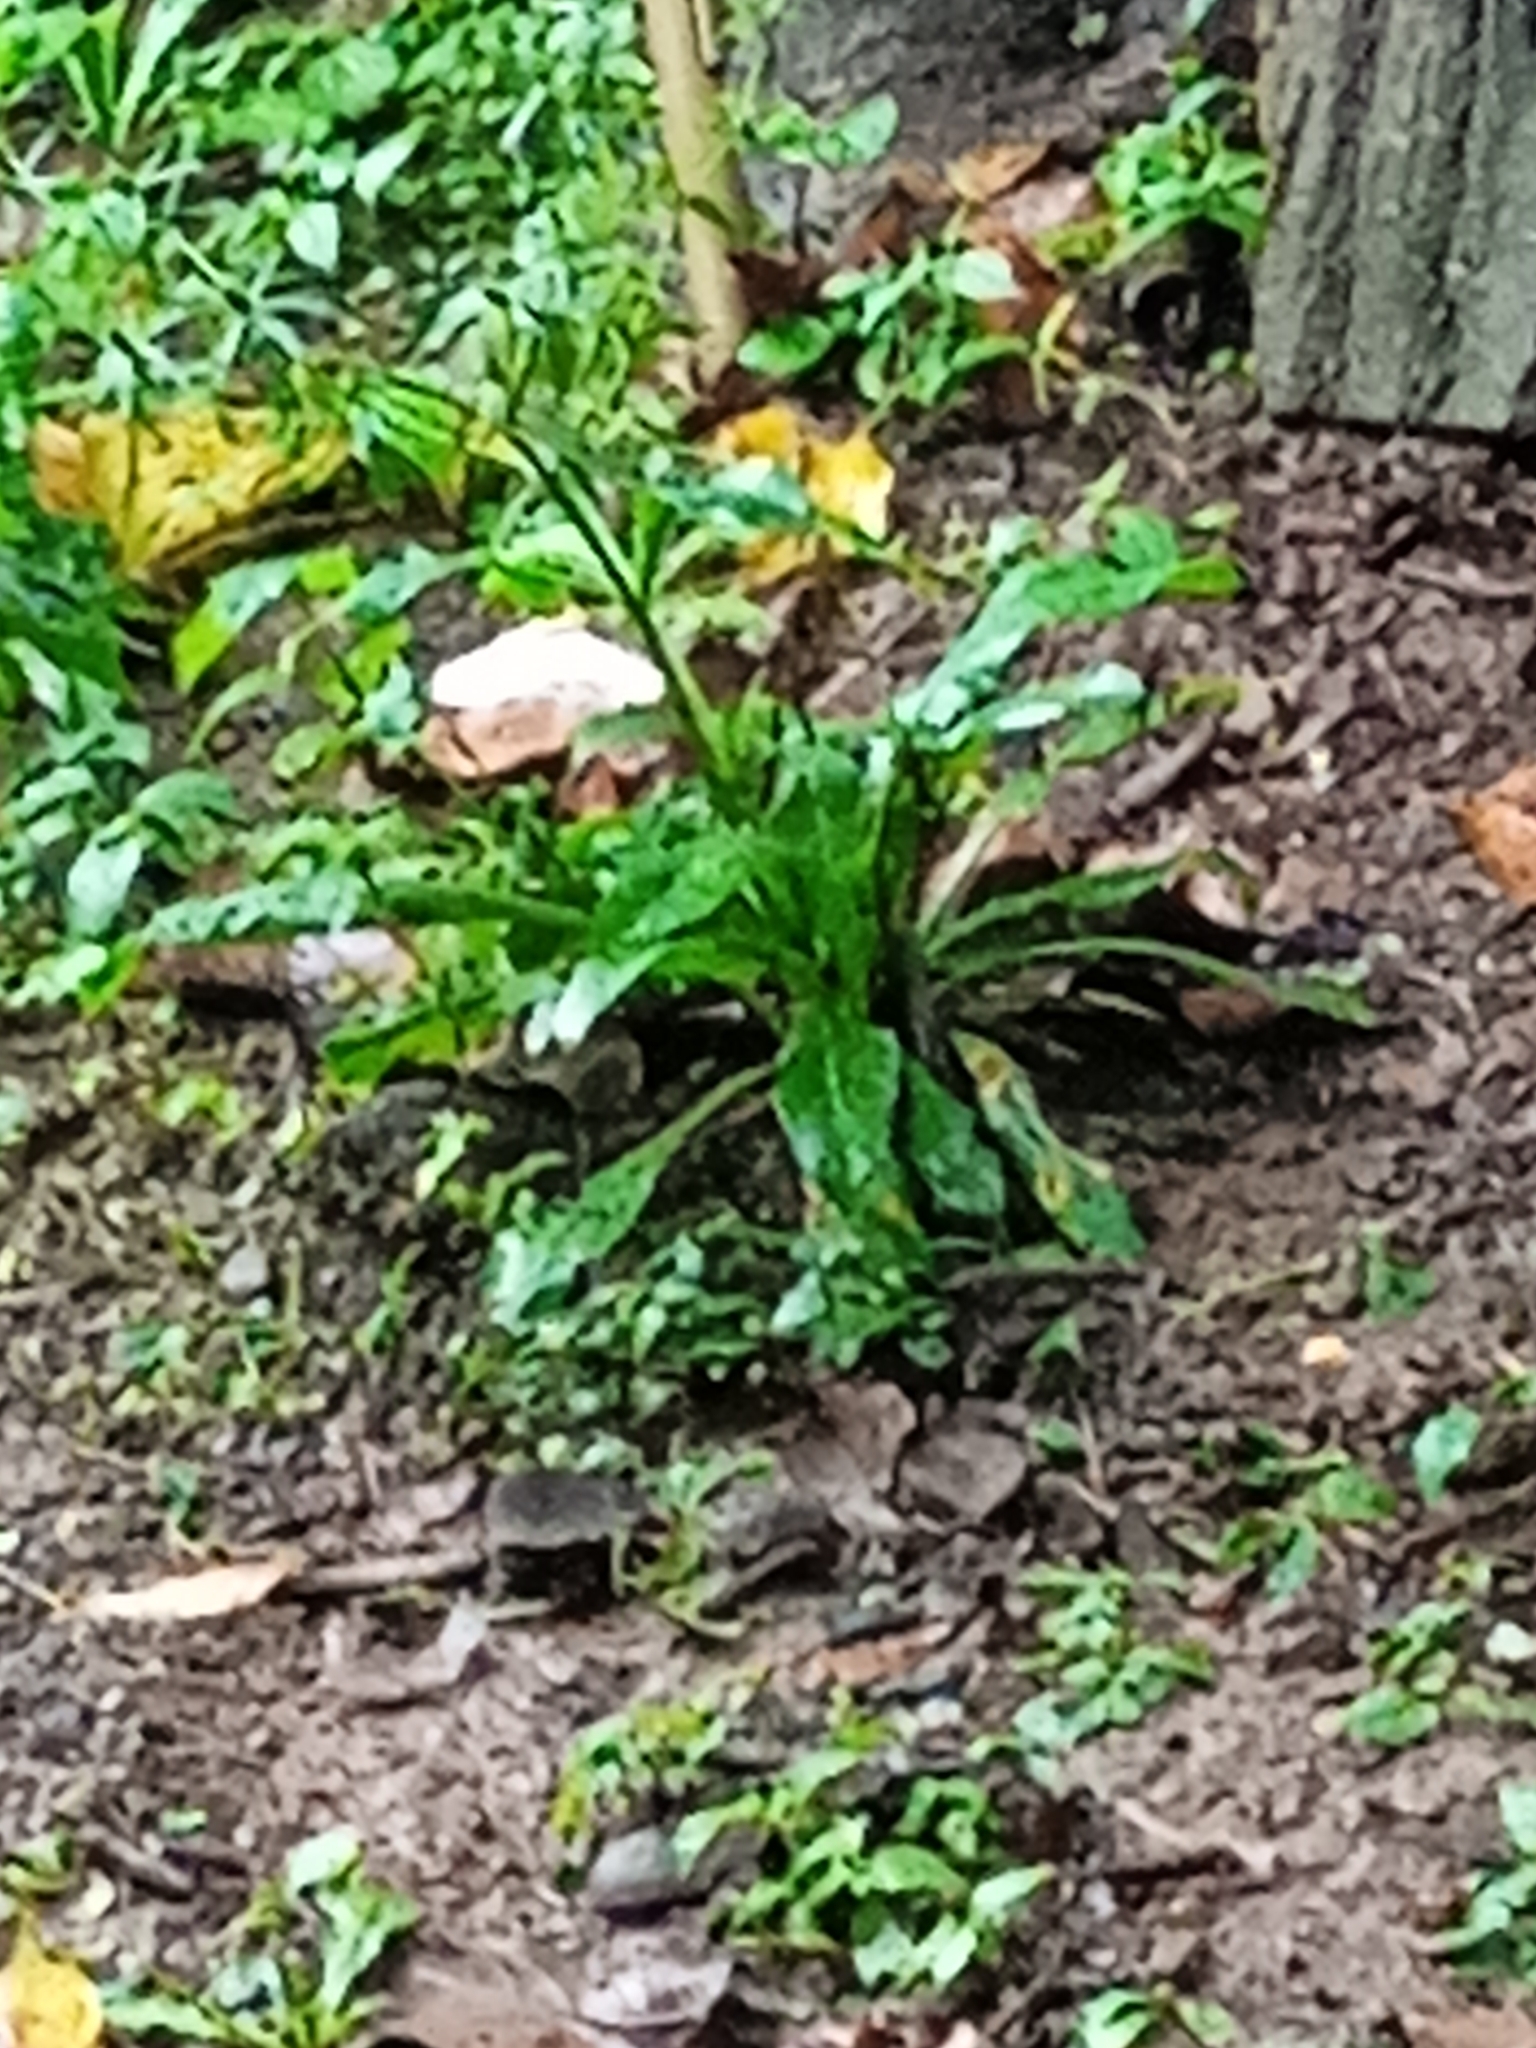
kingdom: Plantae
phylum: Tracheophyta
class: Magnoliopsida
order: Apiales
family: Apiaceae
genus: Eryngium
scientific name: Eryngium foetidum
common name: Fitweed
